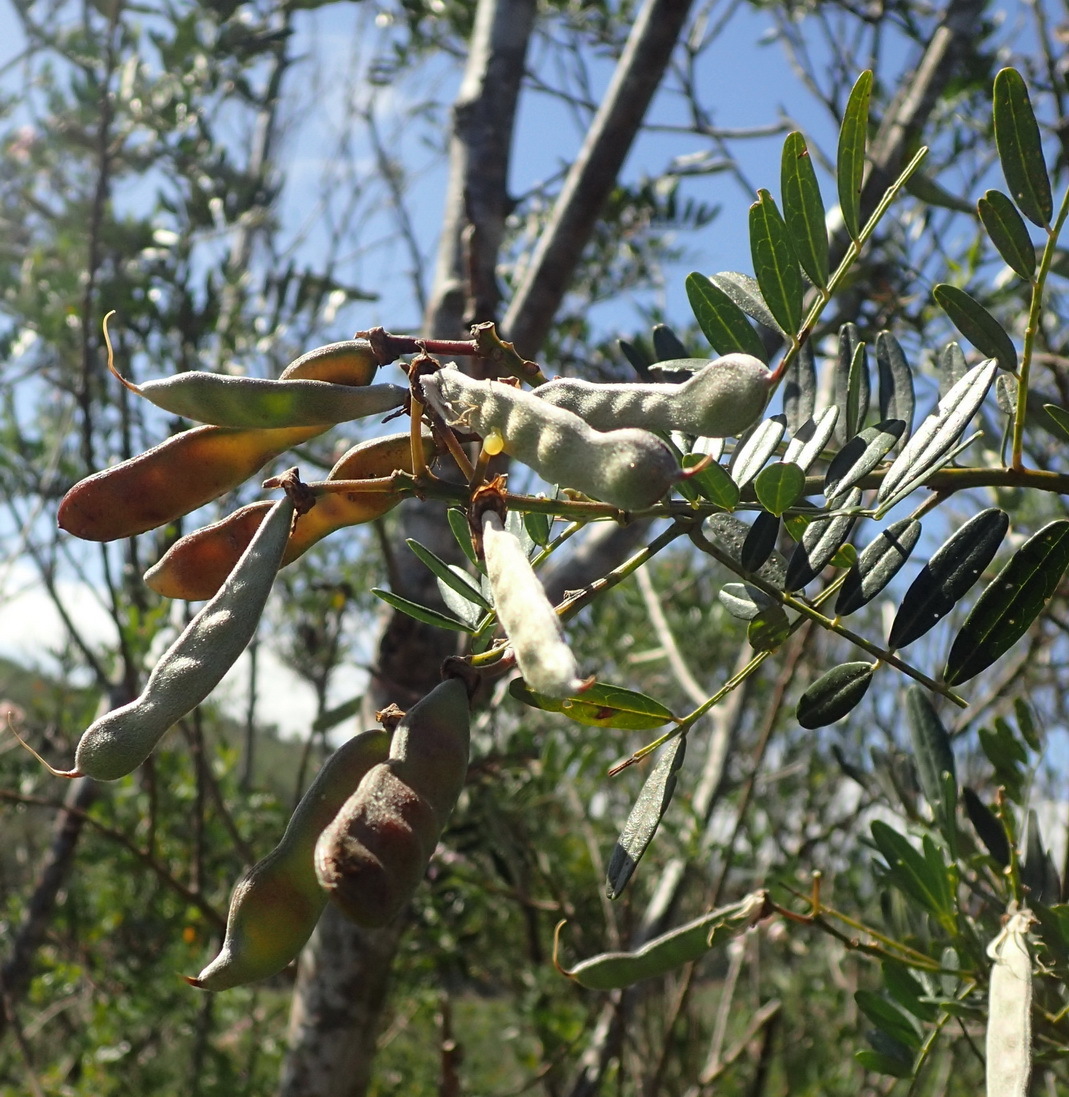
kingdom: Plantae
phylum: Tracheophyta
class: Magnoliopsida
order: Fabales
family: Fabaceae
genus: Virgilia
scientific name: Virgilia divaricata
